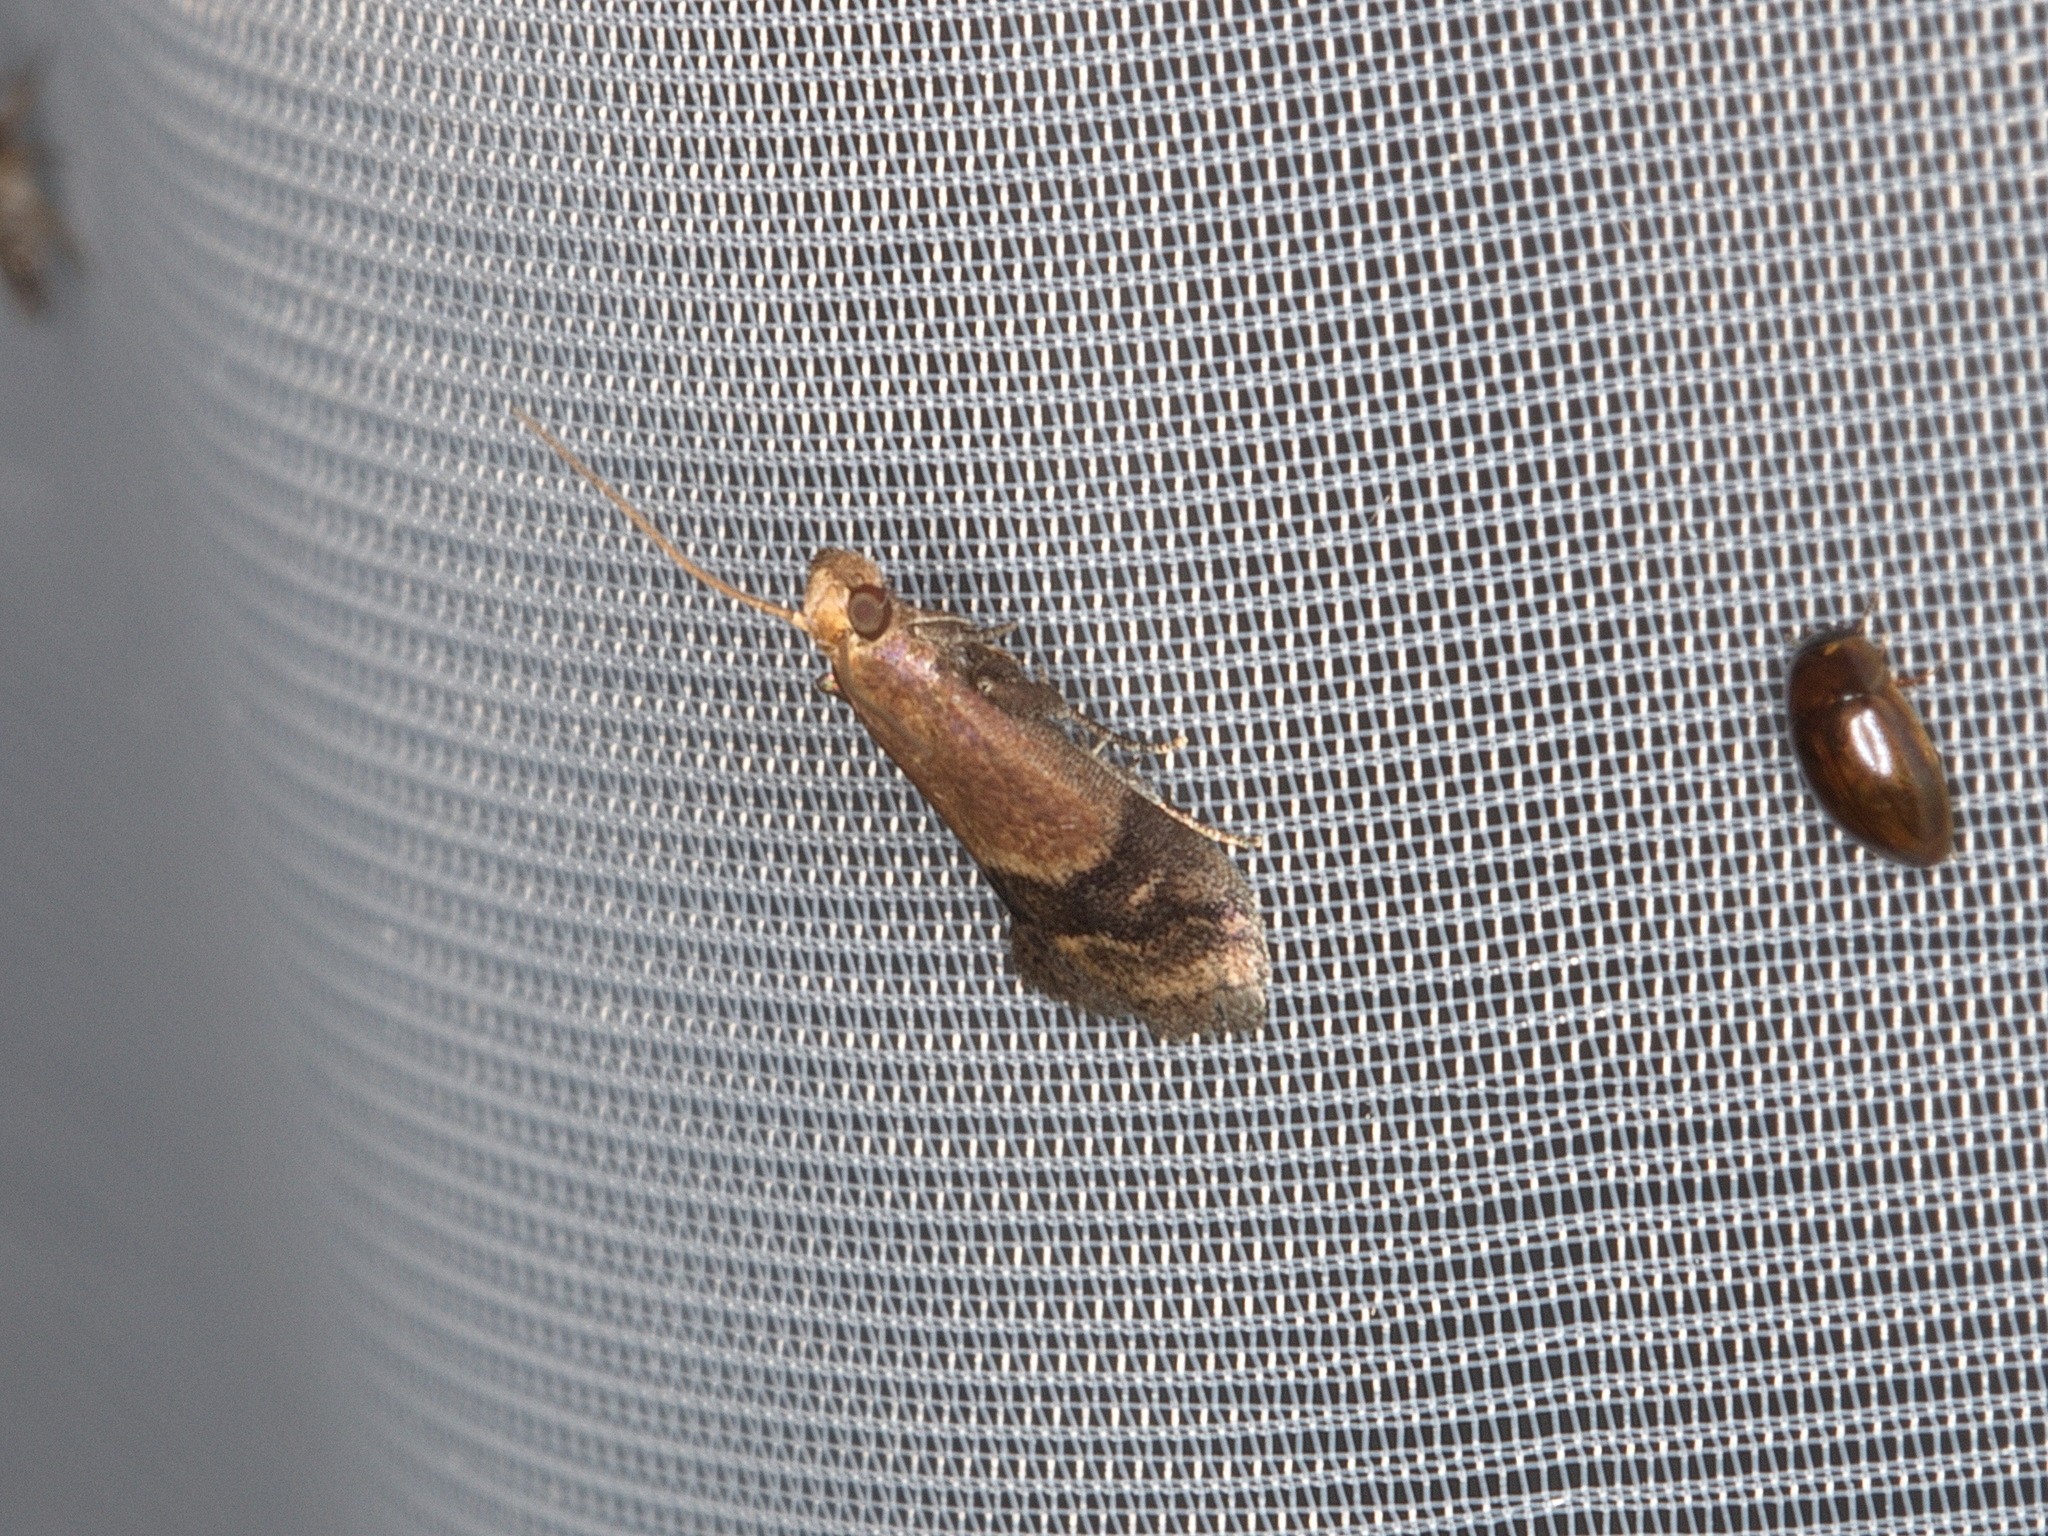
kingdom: Animalia
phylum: Arthropoda
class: Insecta
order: Lepidoptera
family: Pyralidae
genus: Eulogia
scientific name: Eulogia ochrifrontella
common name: Broad-banded eulogia moth
